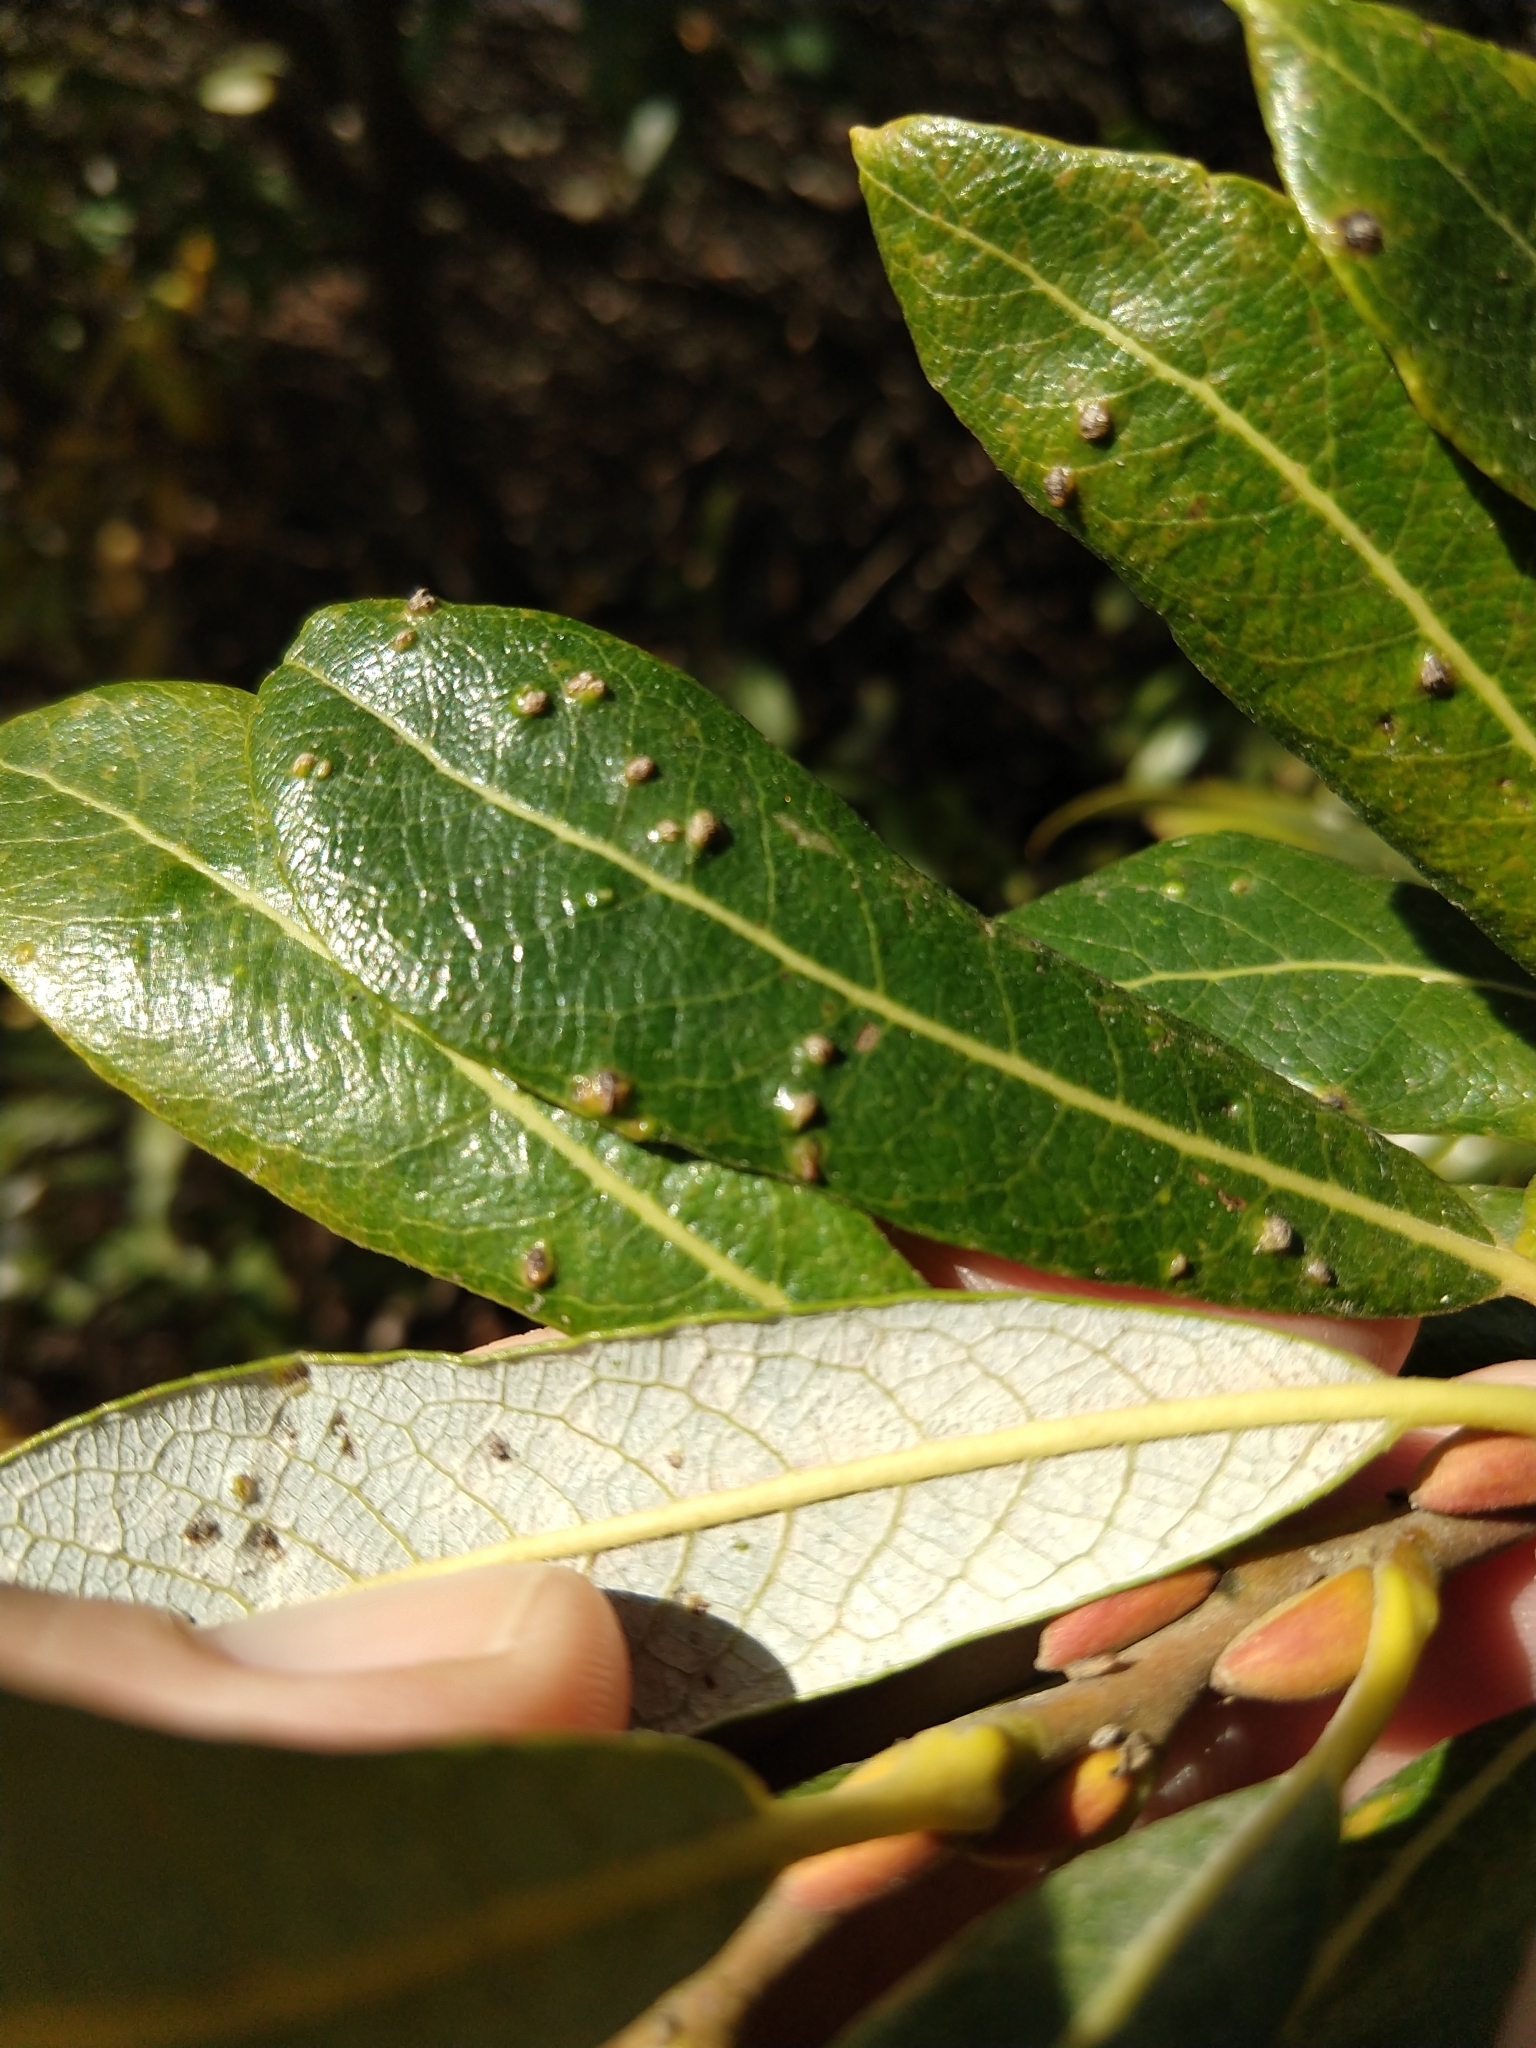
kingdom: Animalia
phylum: Arthropoda
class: Arachnida
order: Trombidiformes
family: Eriophyidae
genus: Aculus
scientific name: Aculus tetanothrix
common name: Willow bead gall mite
